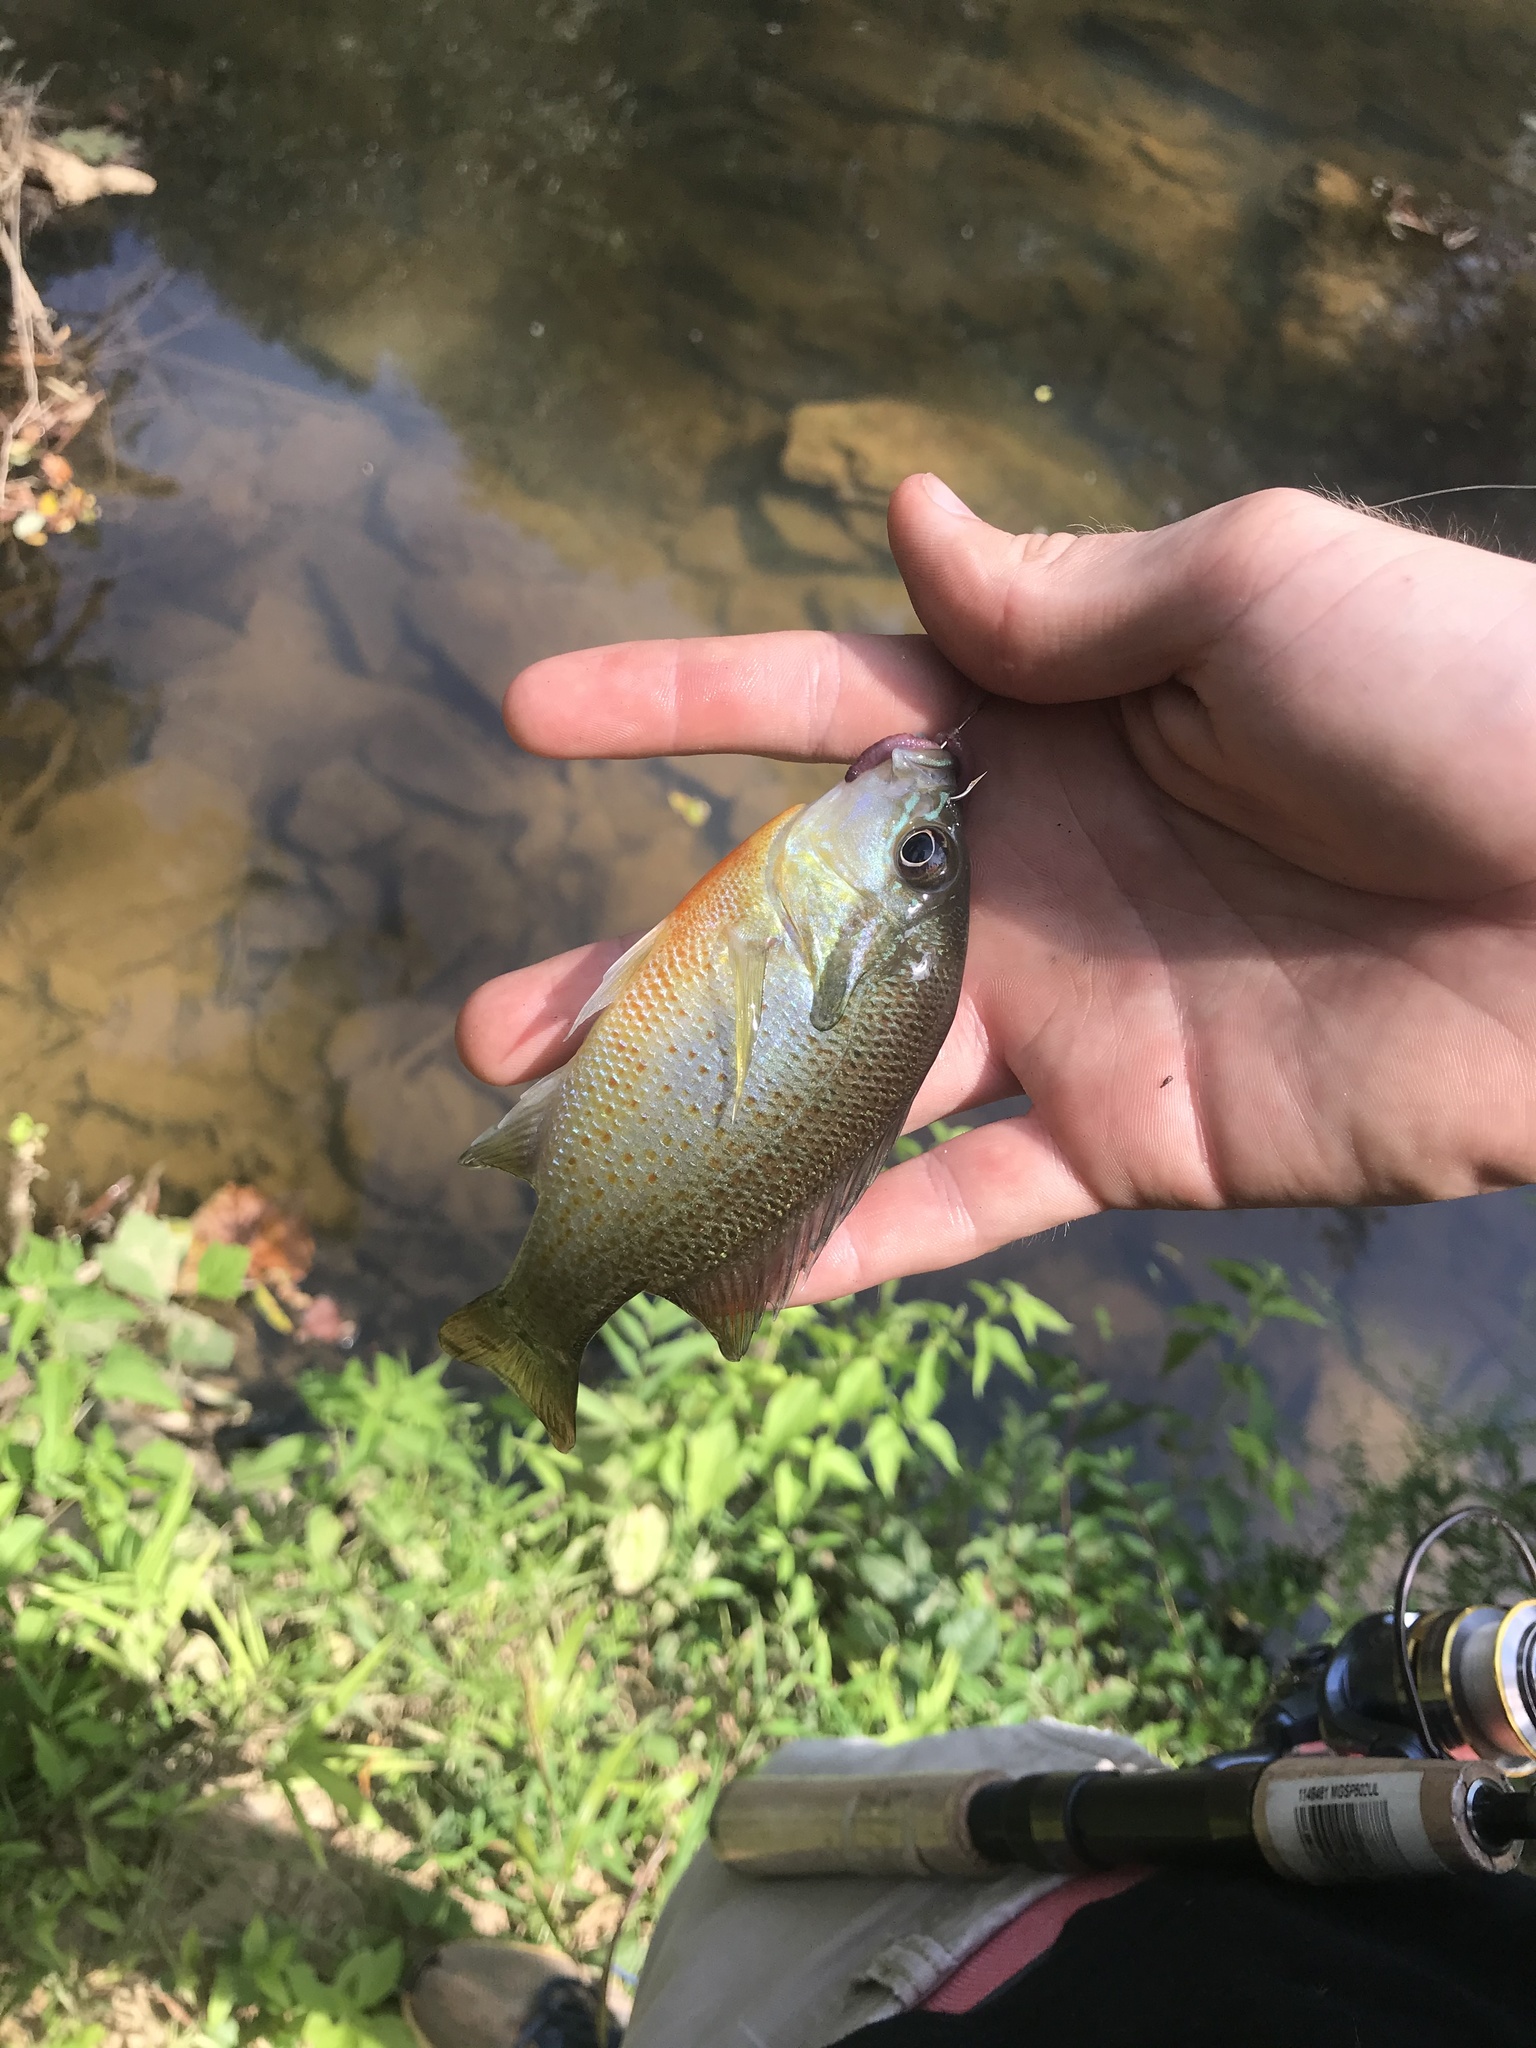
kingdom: Animalia
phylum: Chordata
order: Perciformes
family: Centrarchidae
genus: Lepomis
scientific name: Lepomis auritus
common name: Redbreast sunfish
